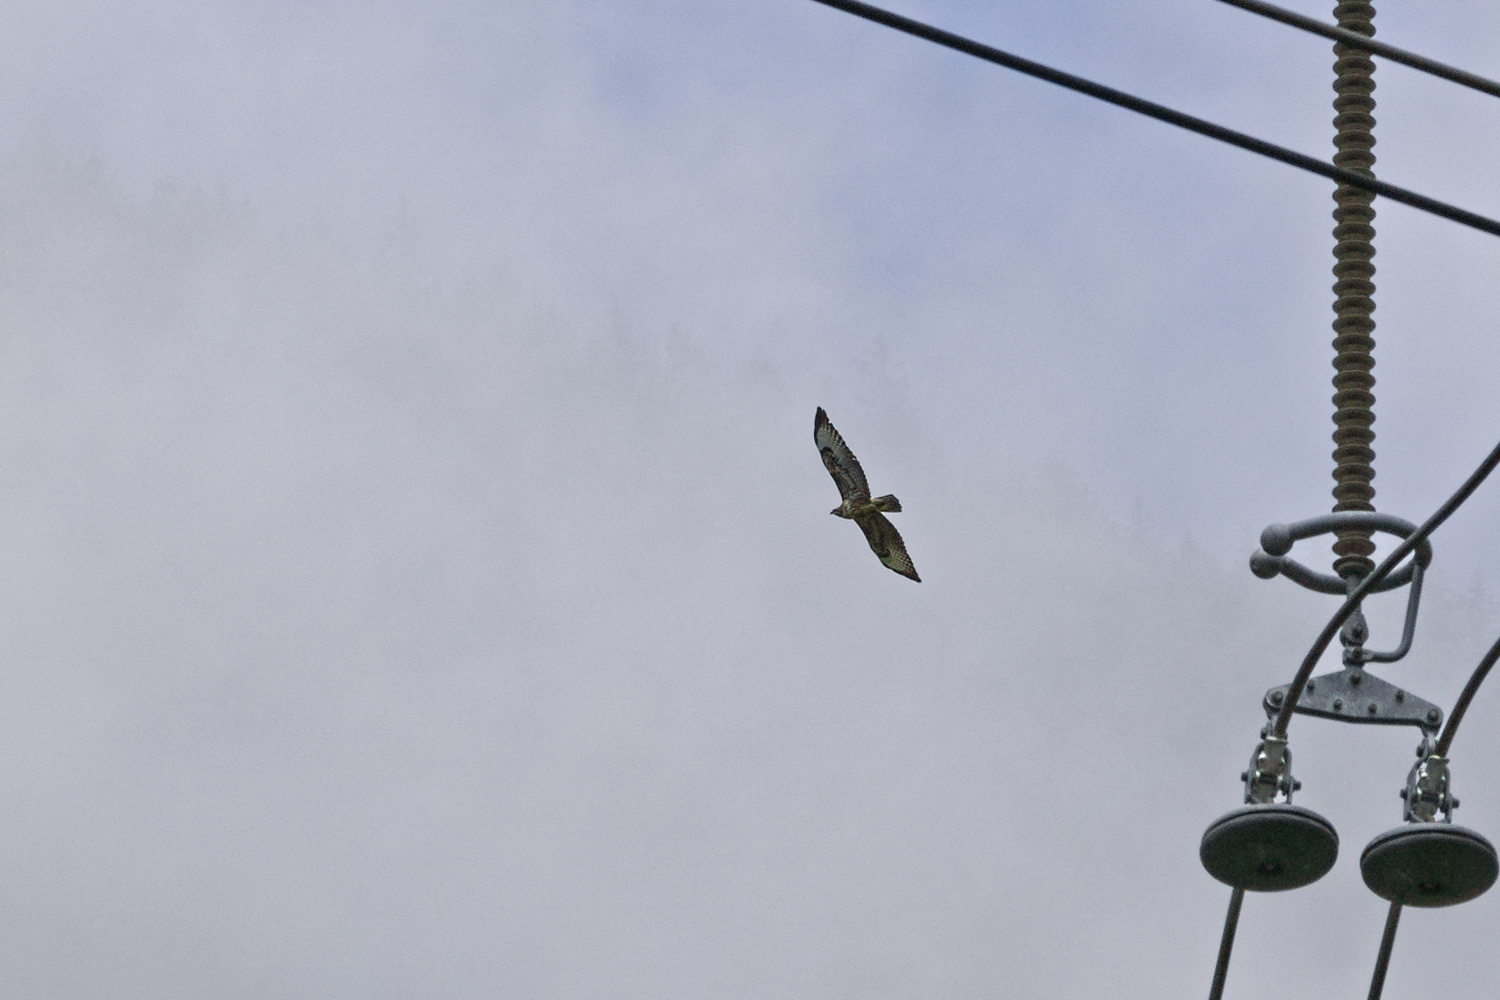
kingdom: Animalia
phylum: Chordata
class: Aves
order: Accipitriformes
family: Accipitridae
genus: Buteo
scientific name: Buteo buteo
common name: Common buzzard
